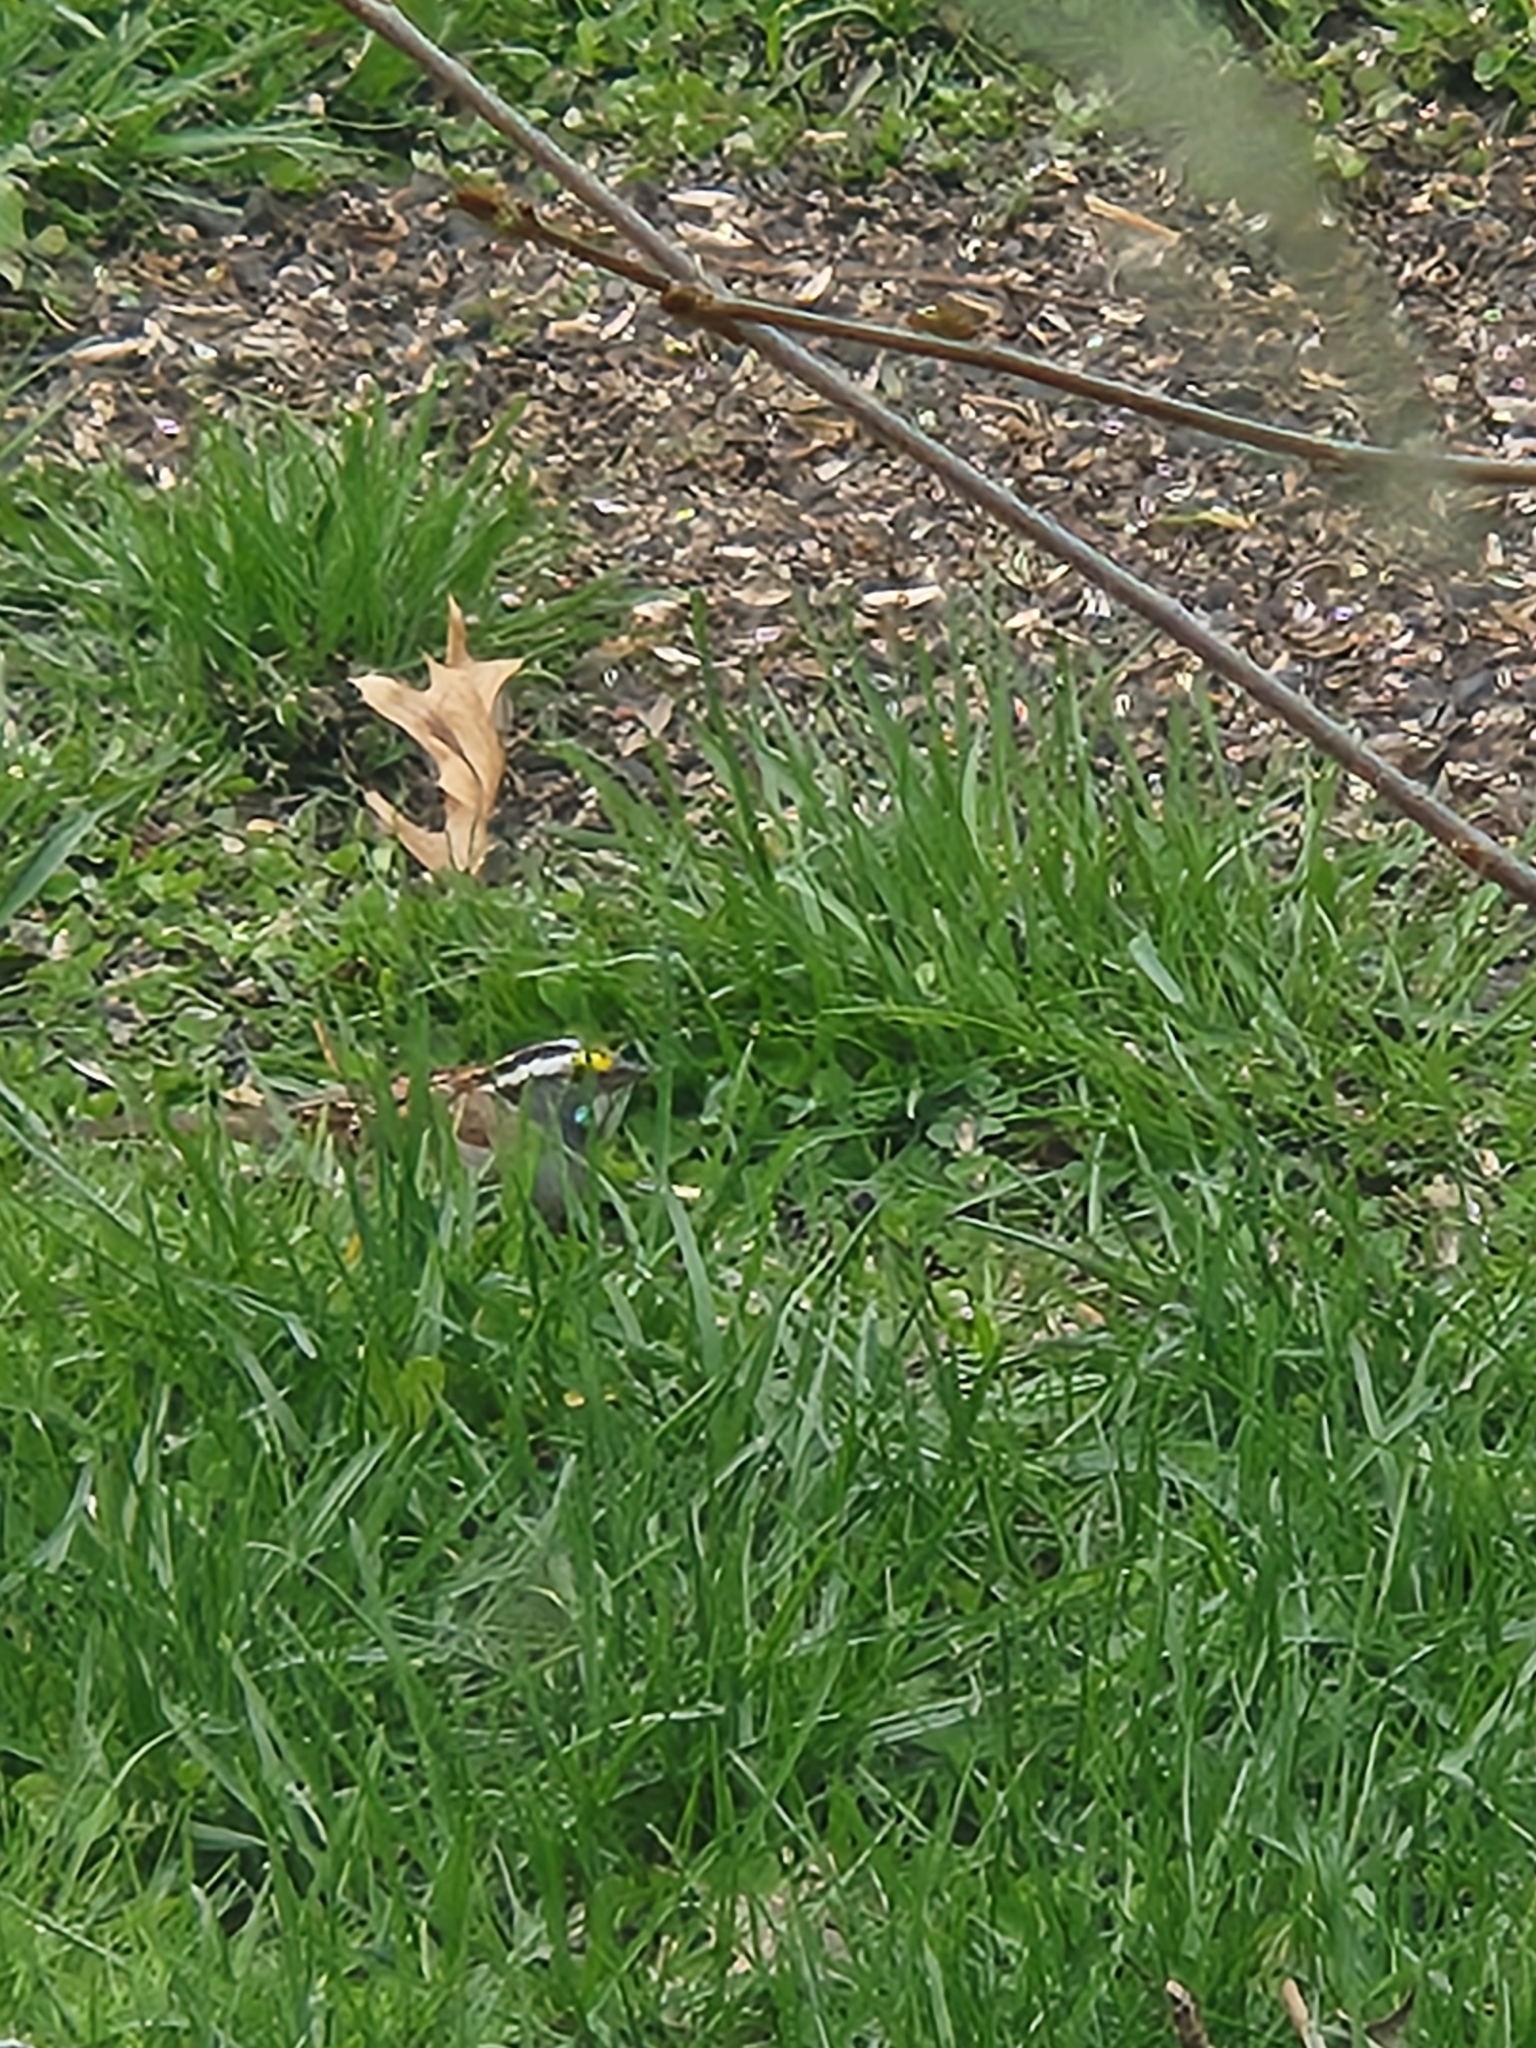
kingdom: Animalia
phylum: Chordata
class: Aves
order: Passeriformes
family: Passerellidae
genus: Zonotrichia
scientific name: Zonotrichia albicollis
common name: White-throated sparrow
